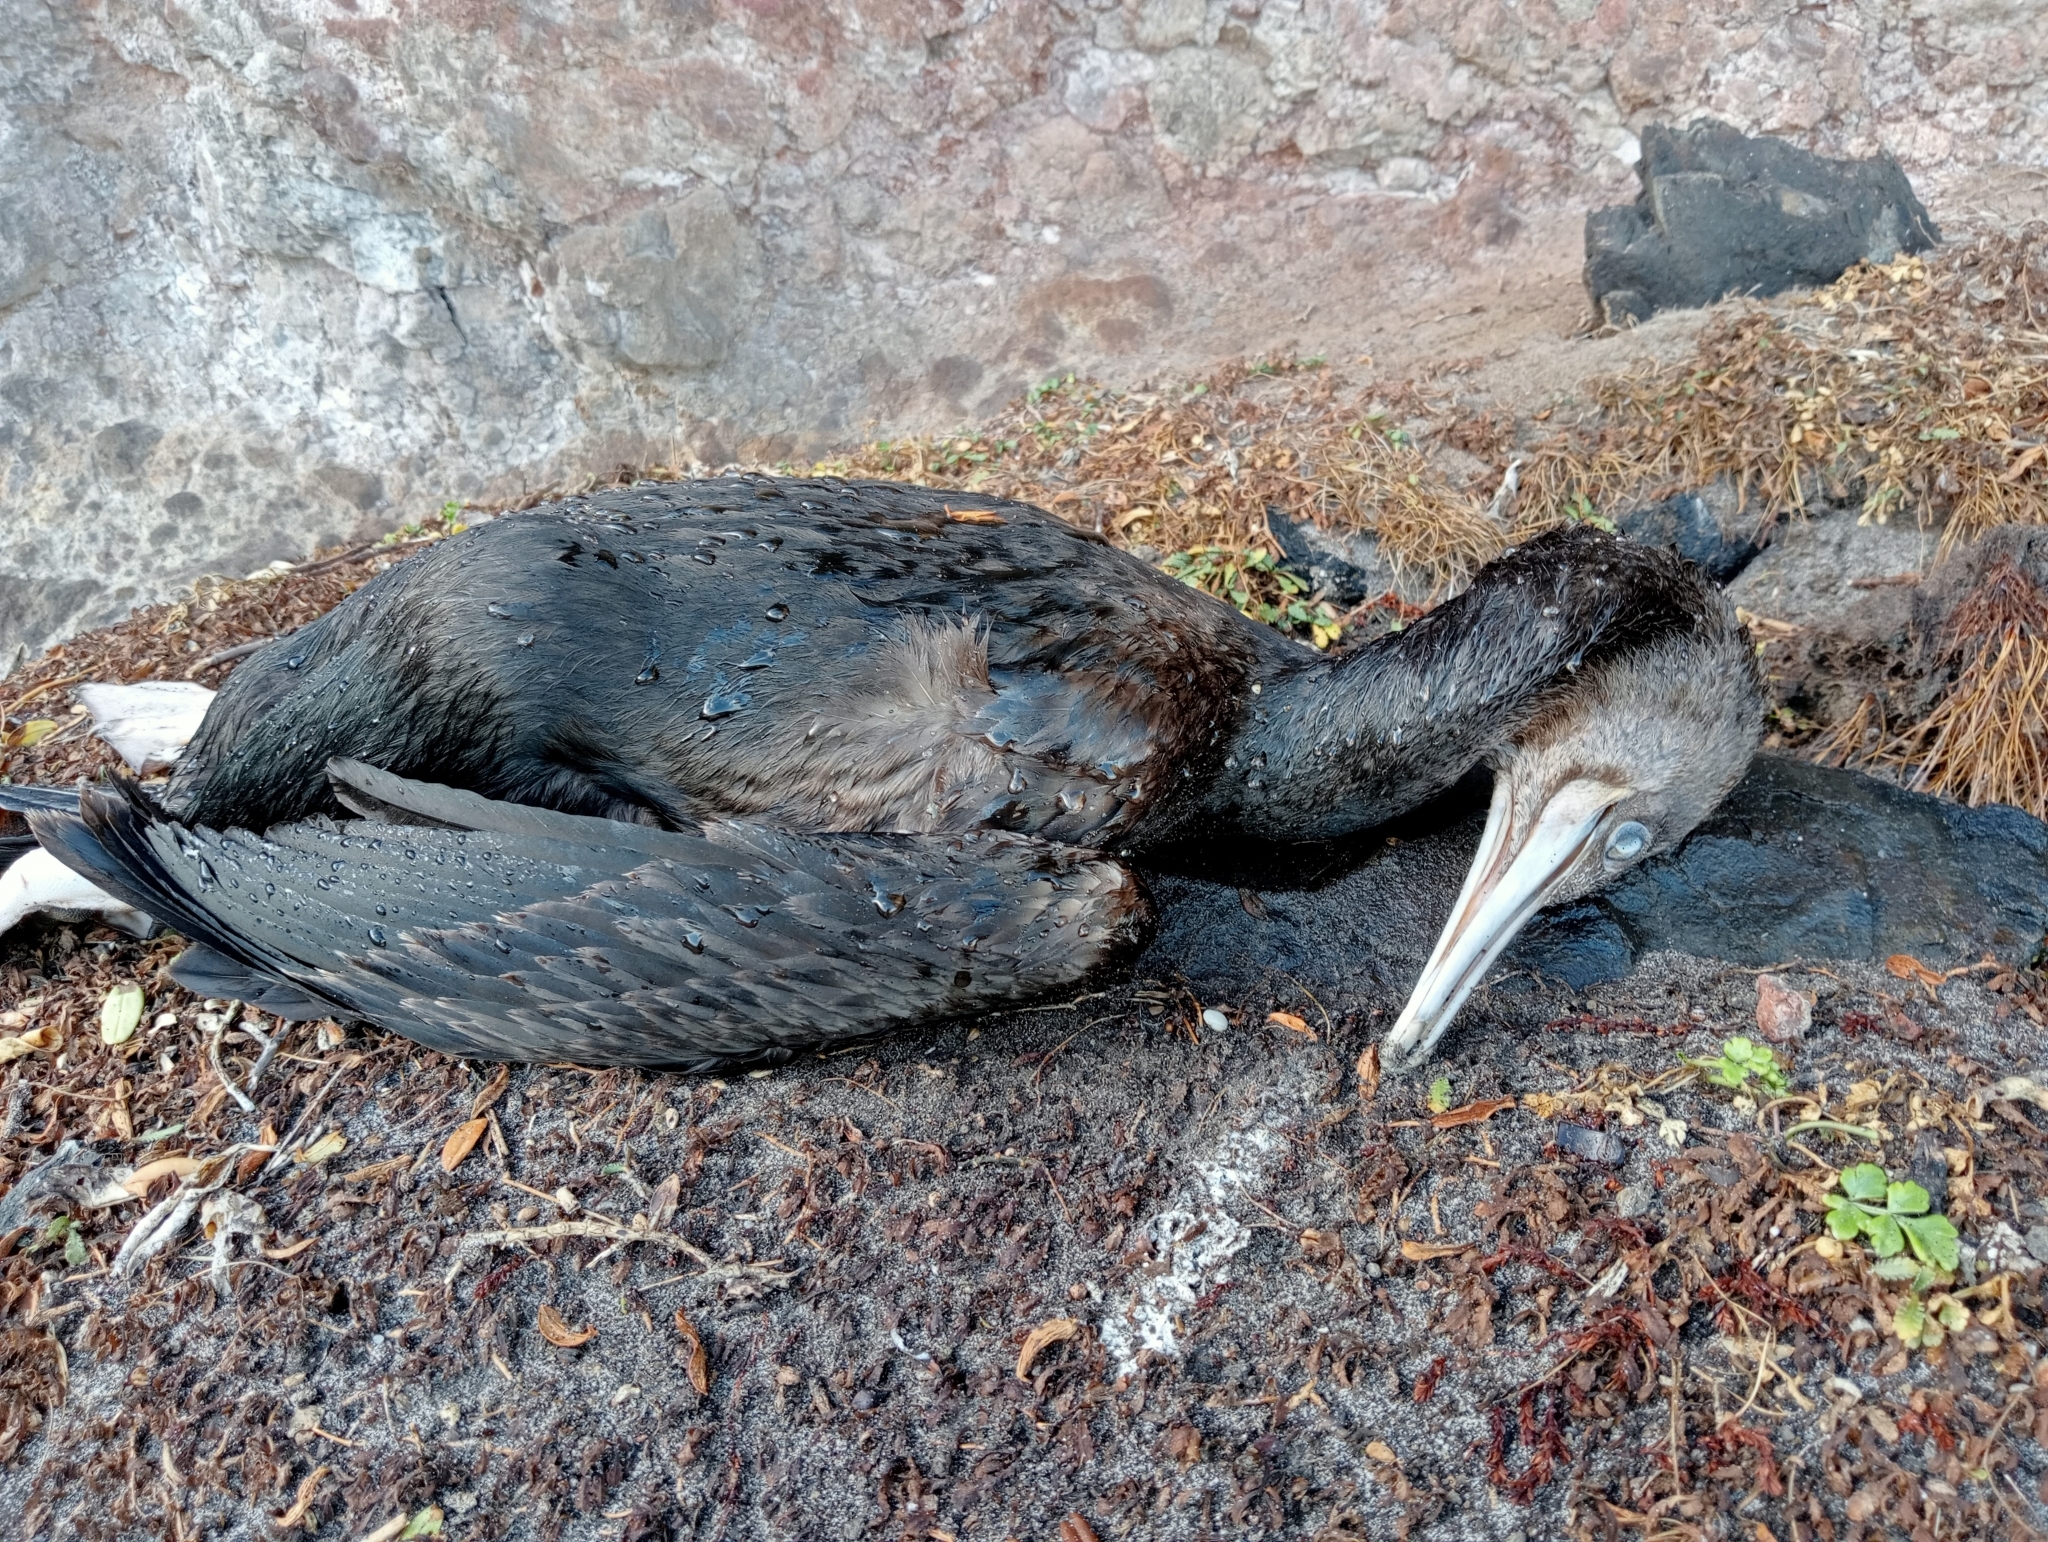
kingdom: Animalia
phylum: Chordata
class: Aves
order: Suliformes
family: Phalacrocoracidae
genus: Leucocarbo
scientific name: Leucocarbo chalconotus
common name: Stewart shag
